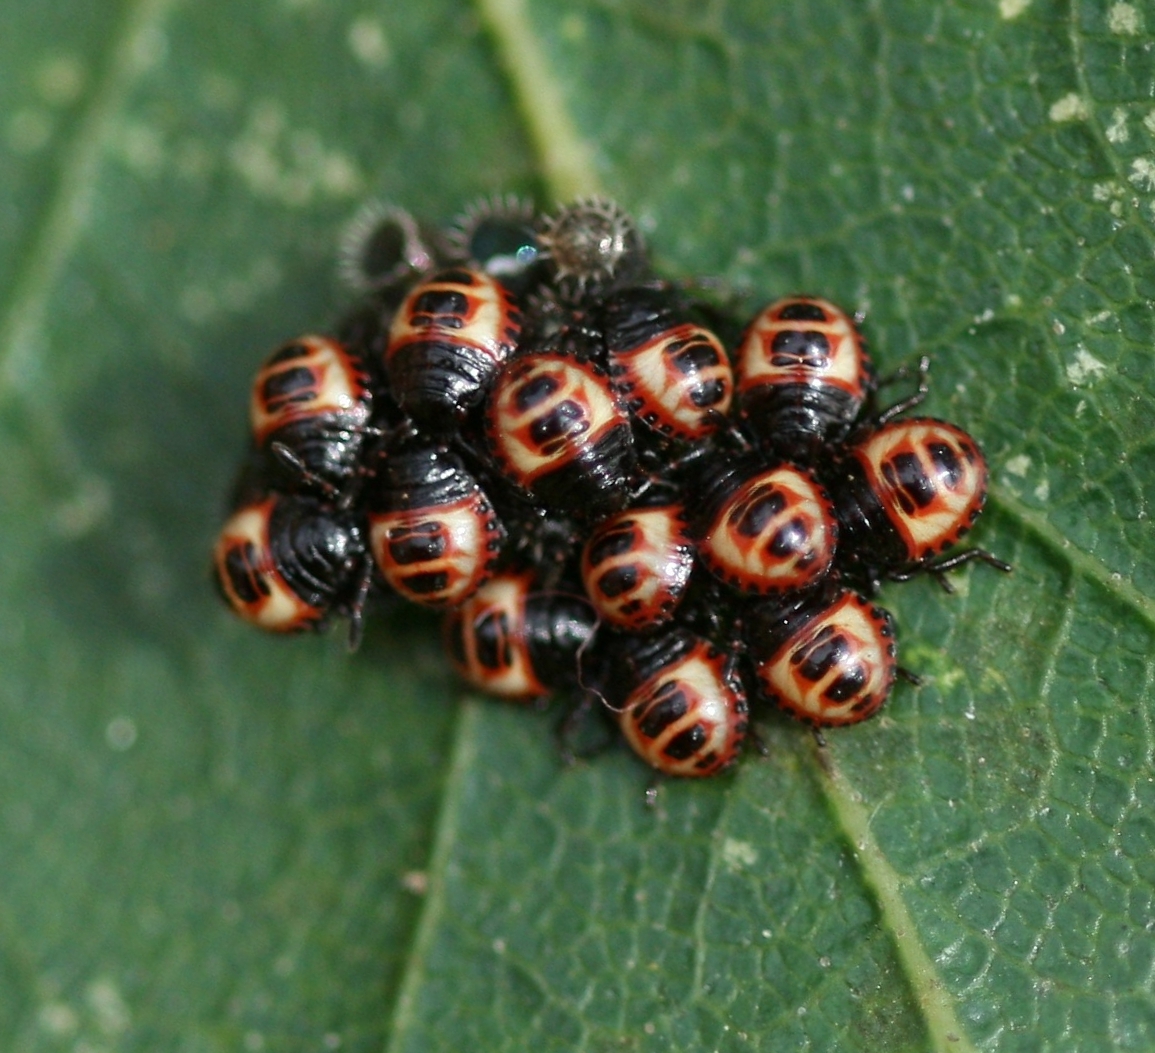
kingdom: Animalia
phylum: Arthropoda
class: Insecta
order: Hemiptera
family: Pentatomidae
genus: Troilus
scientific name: Troilus luridus
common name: Bronze shieldbug
